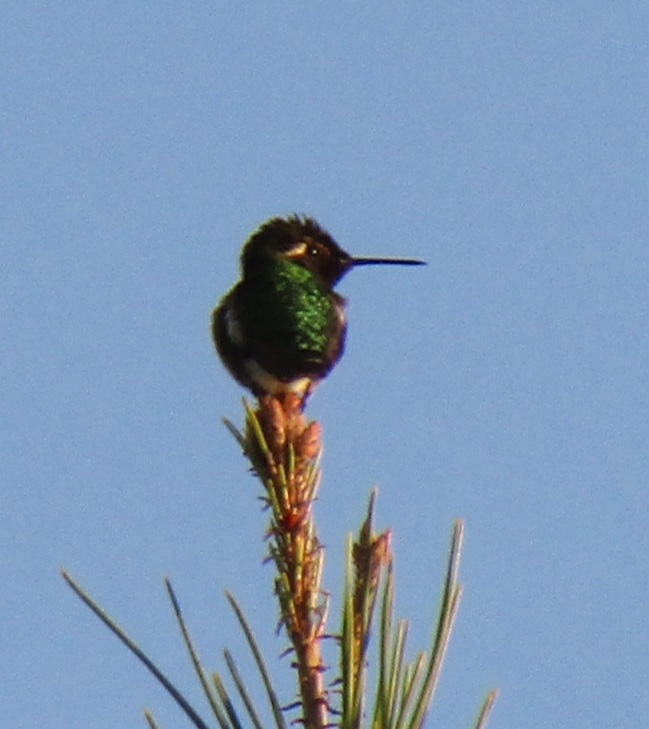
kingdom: Animalia
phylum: Chordata
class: Aves
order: Apodiformes
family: Trochilidae
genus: Calypte
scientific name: Calypte anna
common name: Anna's hummingbird
